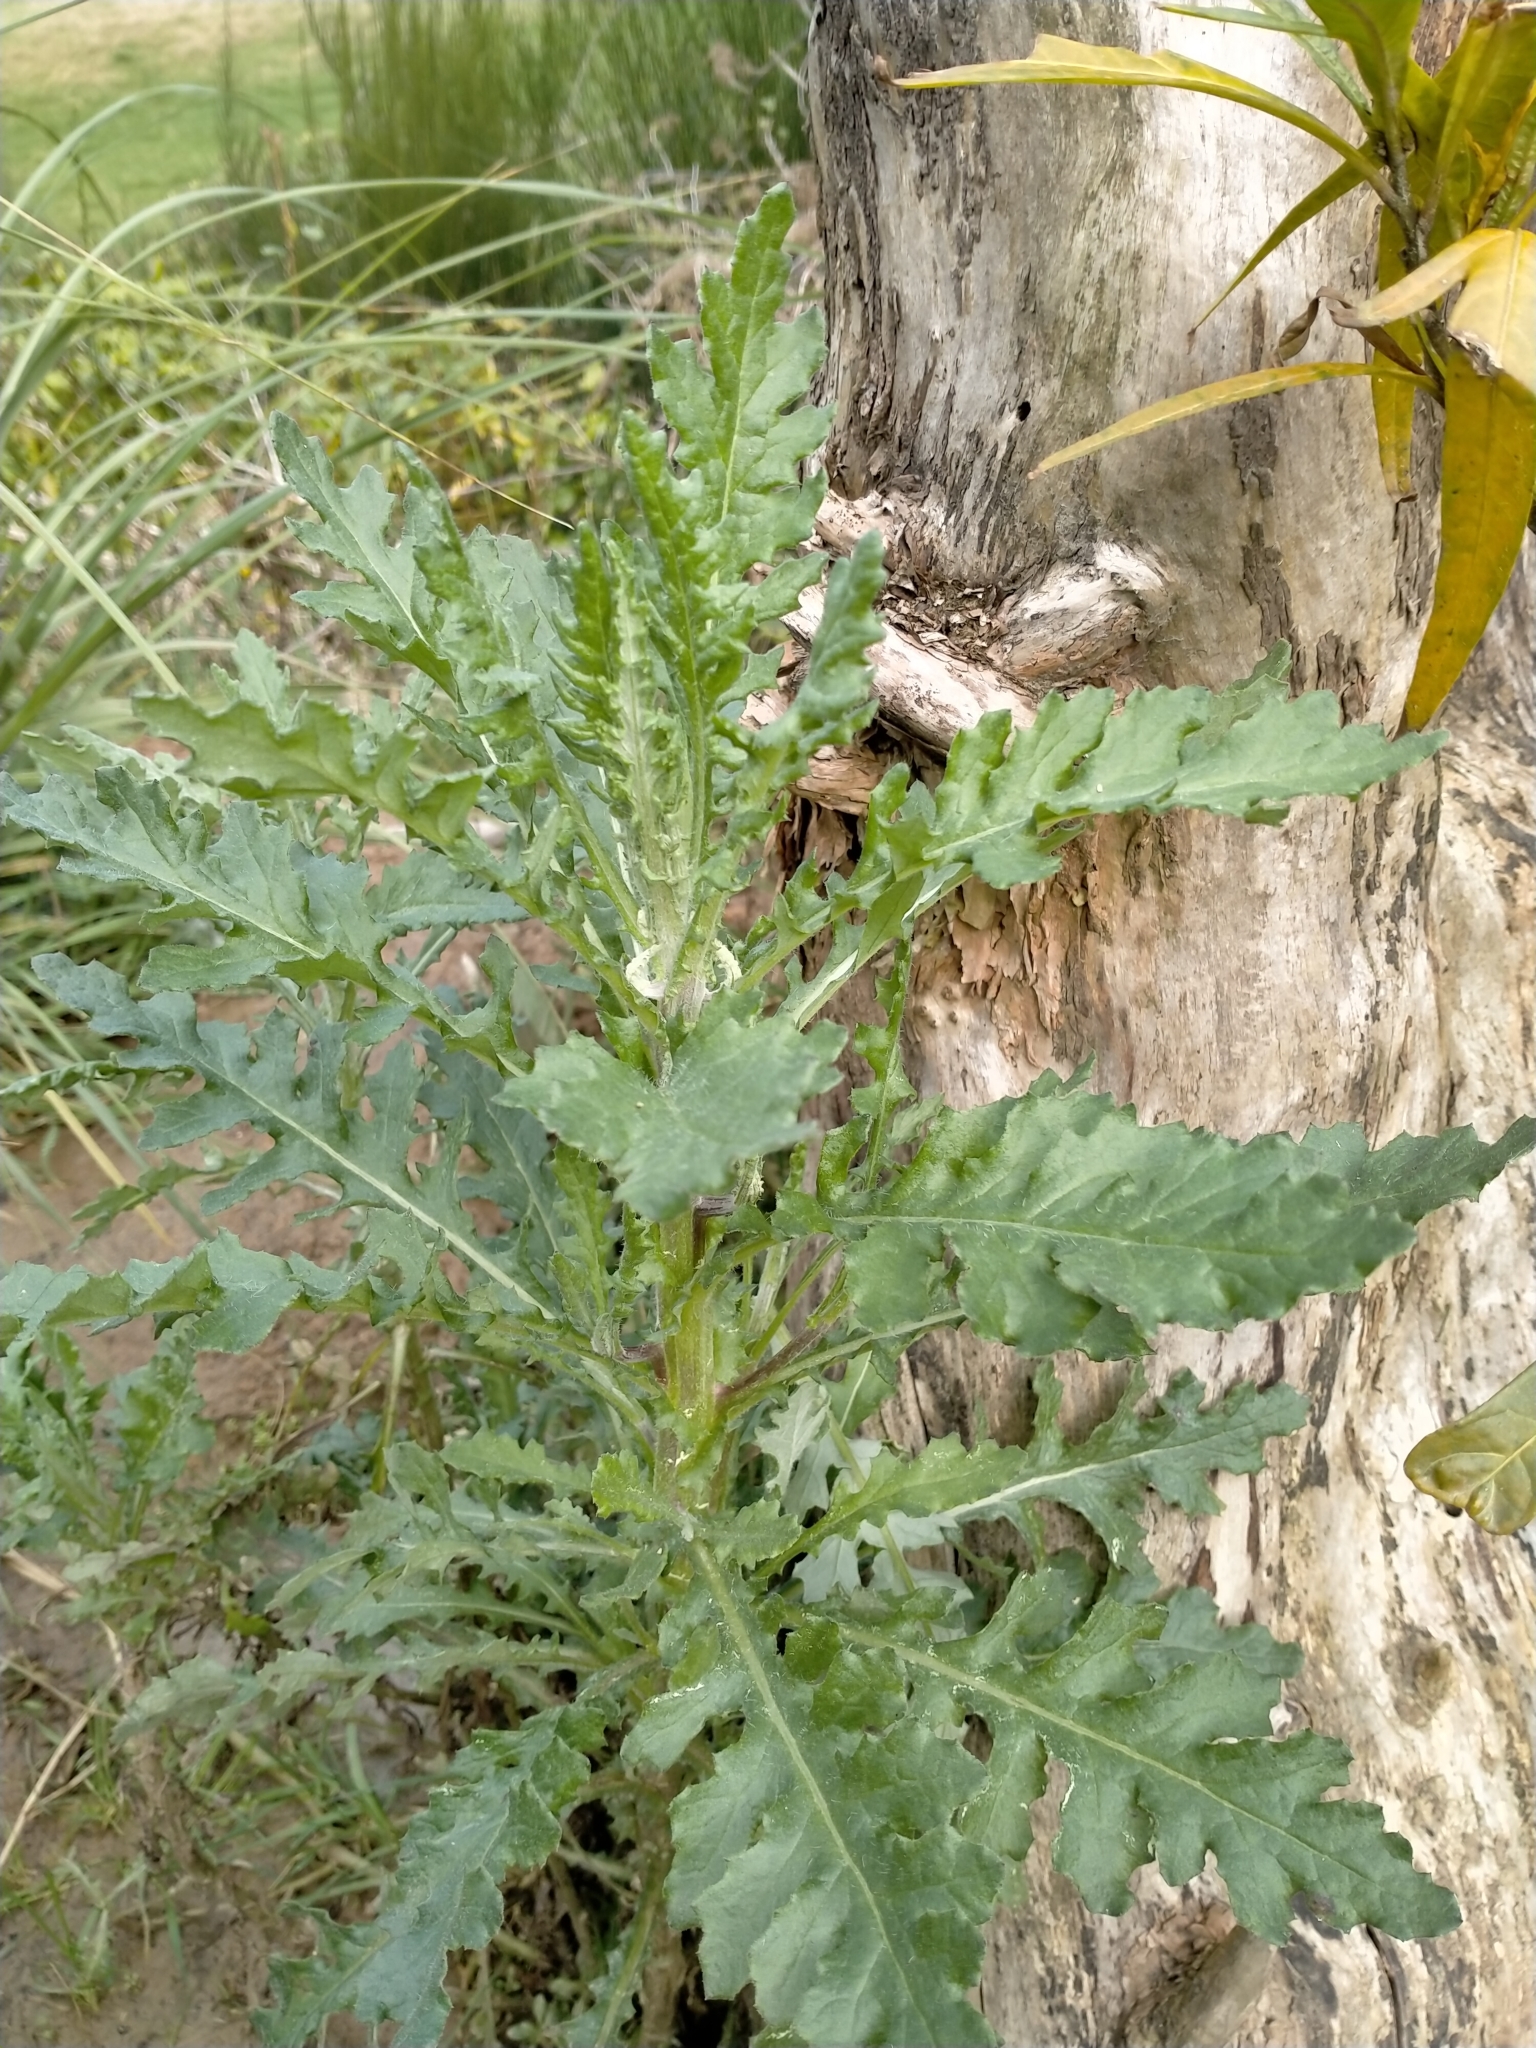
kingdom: Plantae
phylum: Tracheophyta
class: Magnoliopsida
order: Asterales
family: Asteraceae
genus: Senecio
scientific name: Senecio glomeratus
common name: Cutleaf burnweed
